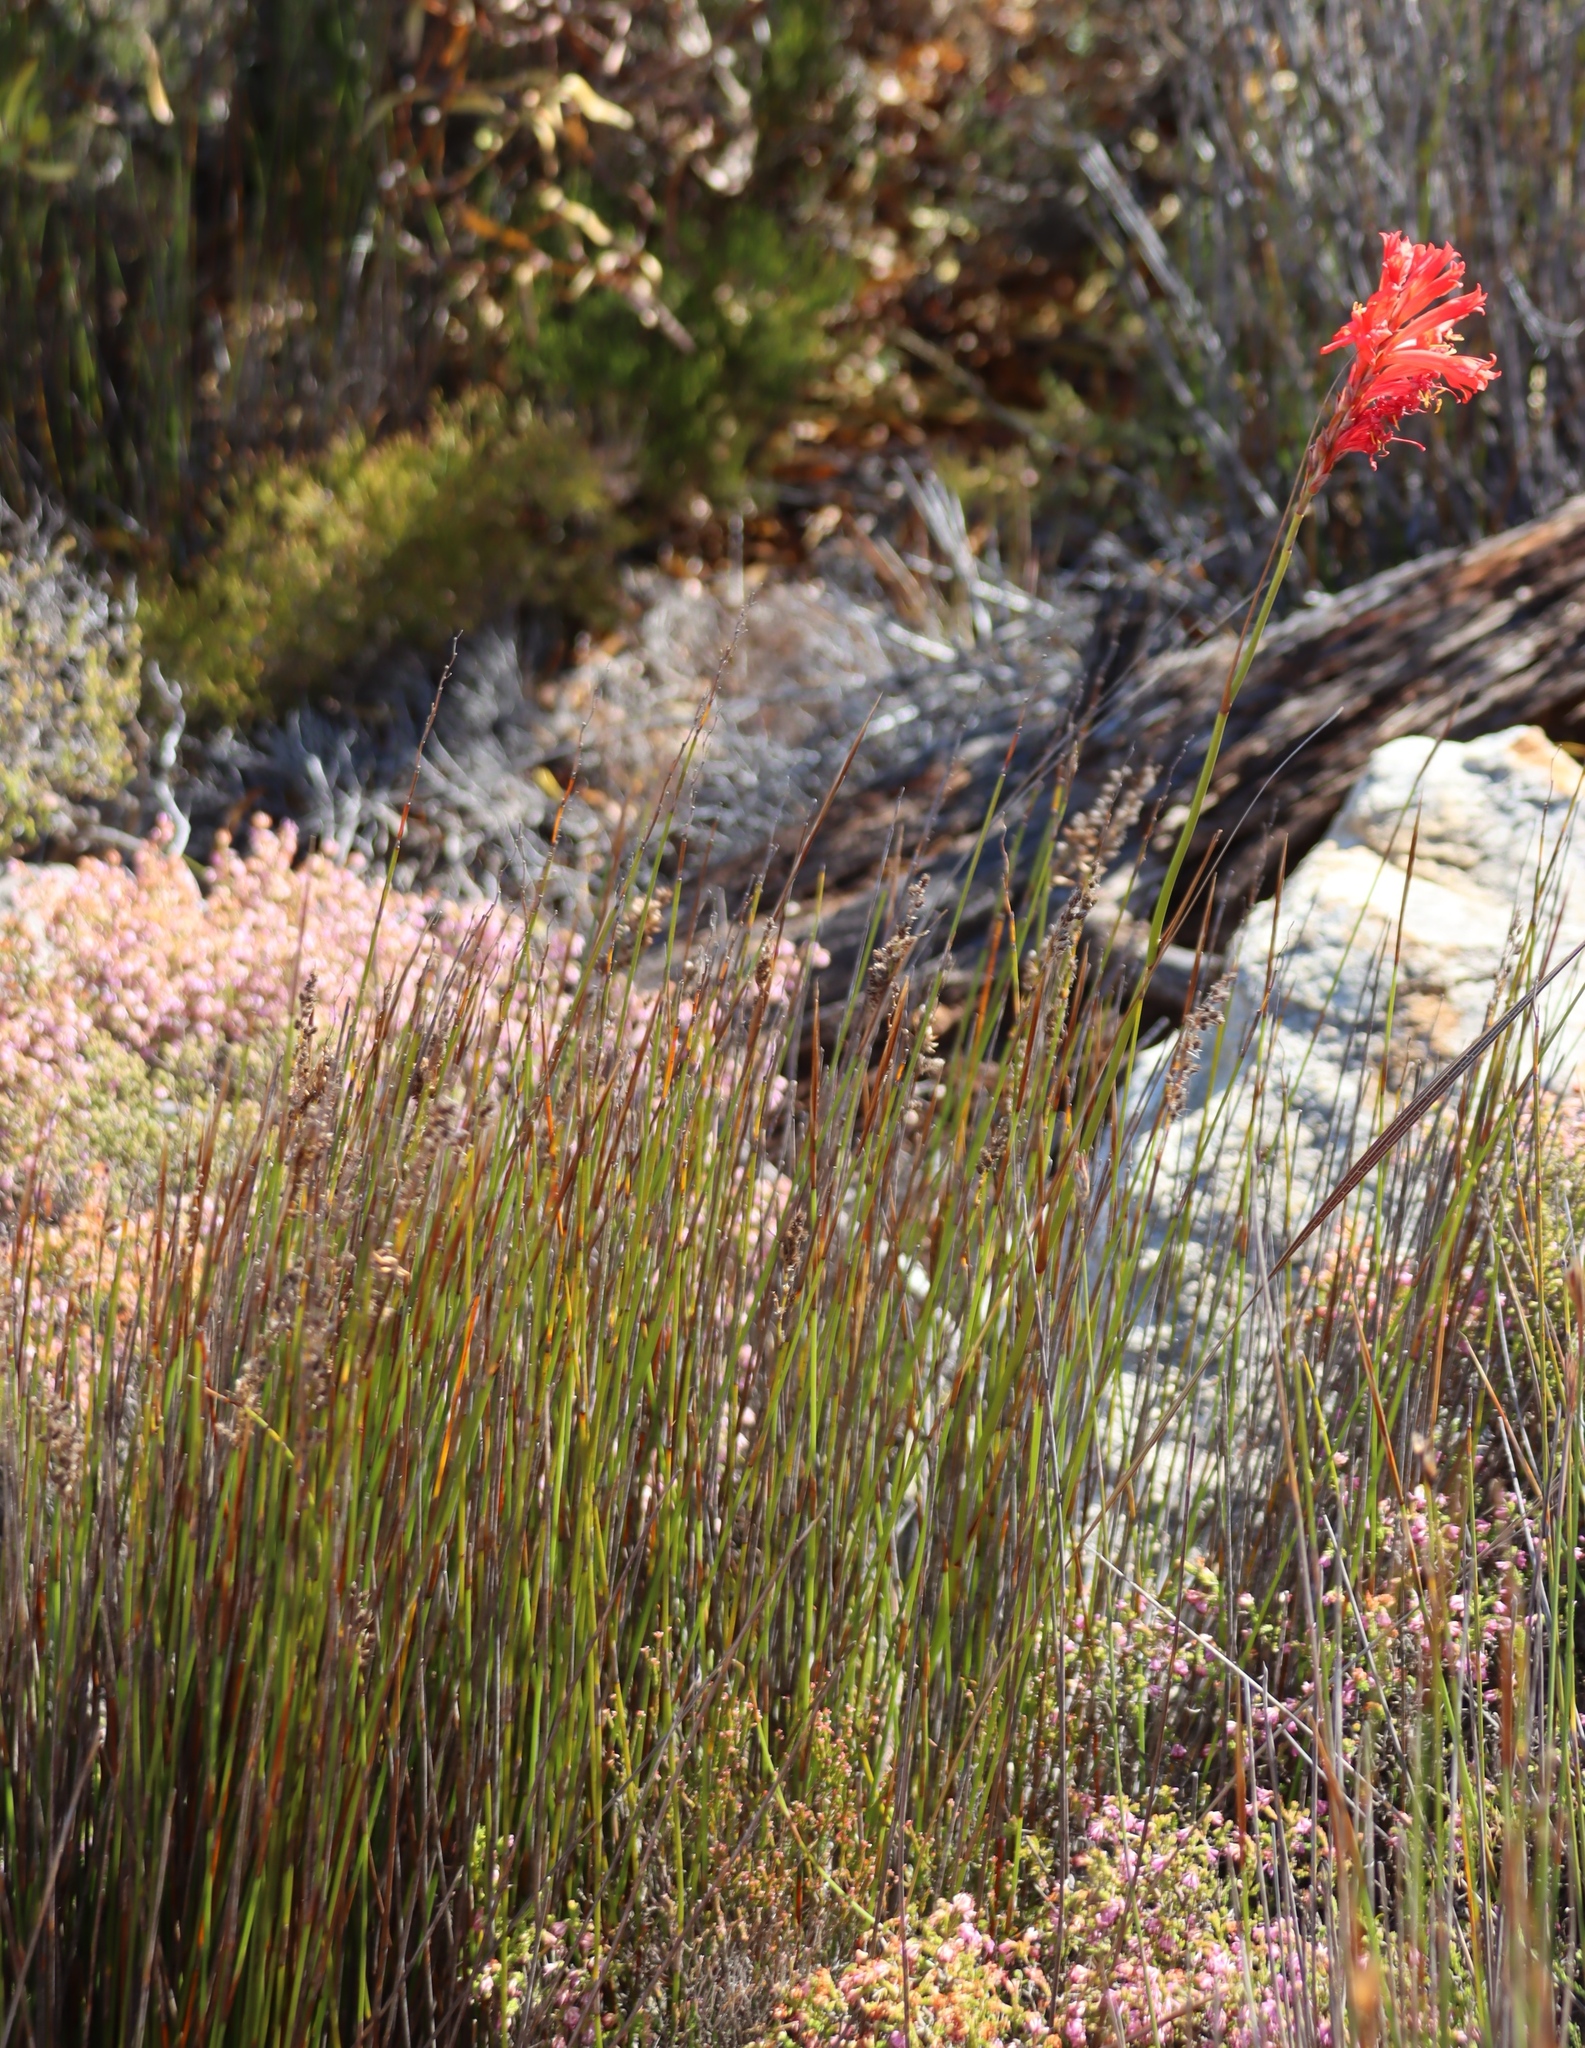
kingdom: Plantae
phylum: Tracheophyta
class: Liliopsida
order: Asparagales
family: Iridaceae
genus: Tritoniopsis
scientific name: Tritoniopsis triticea
